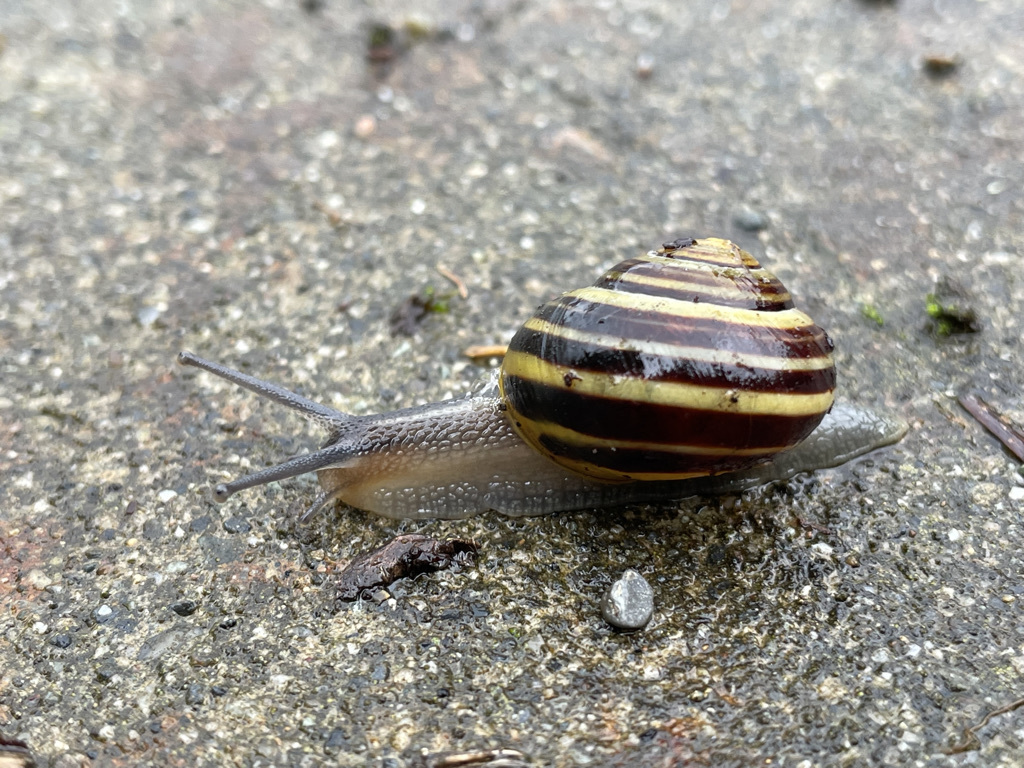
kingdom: Animalia
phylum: Mollusca
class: Gastropoda
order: Stylommatophora
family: Helicidae
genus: Cepaea
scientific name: Cepaea nemoralis
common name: Grovesnail
